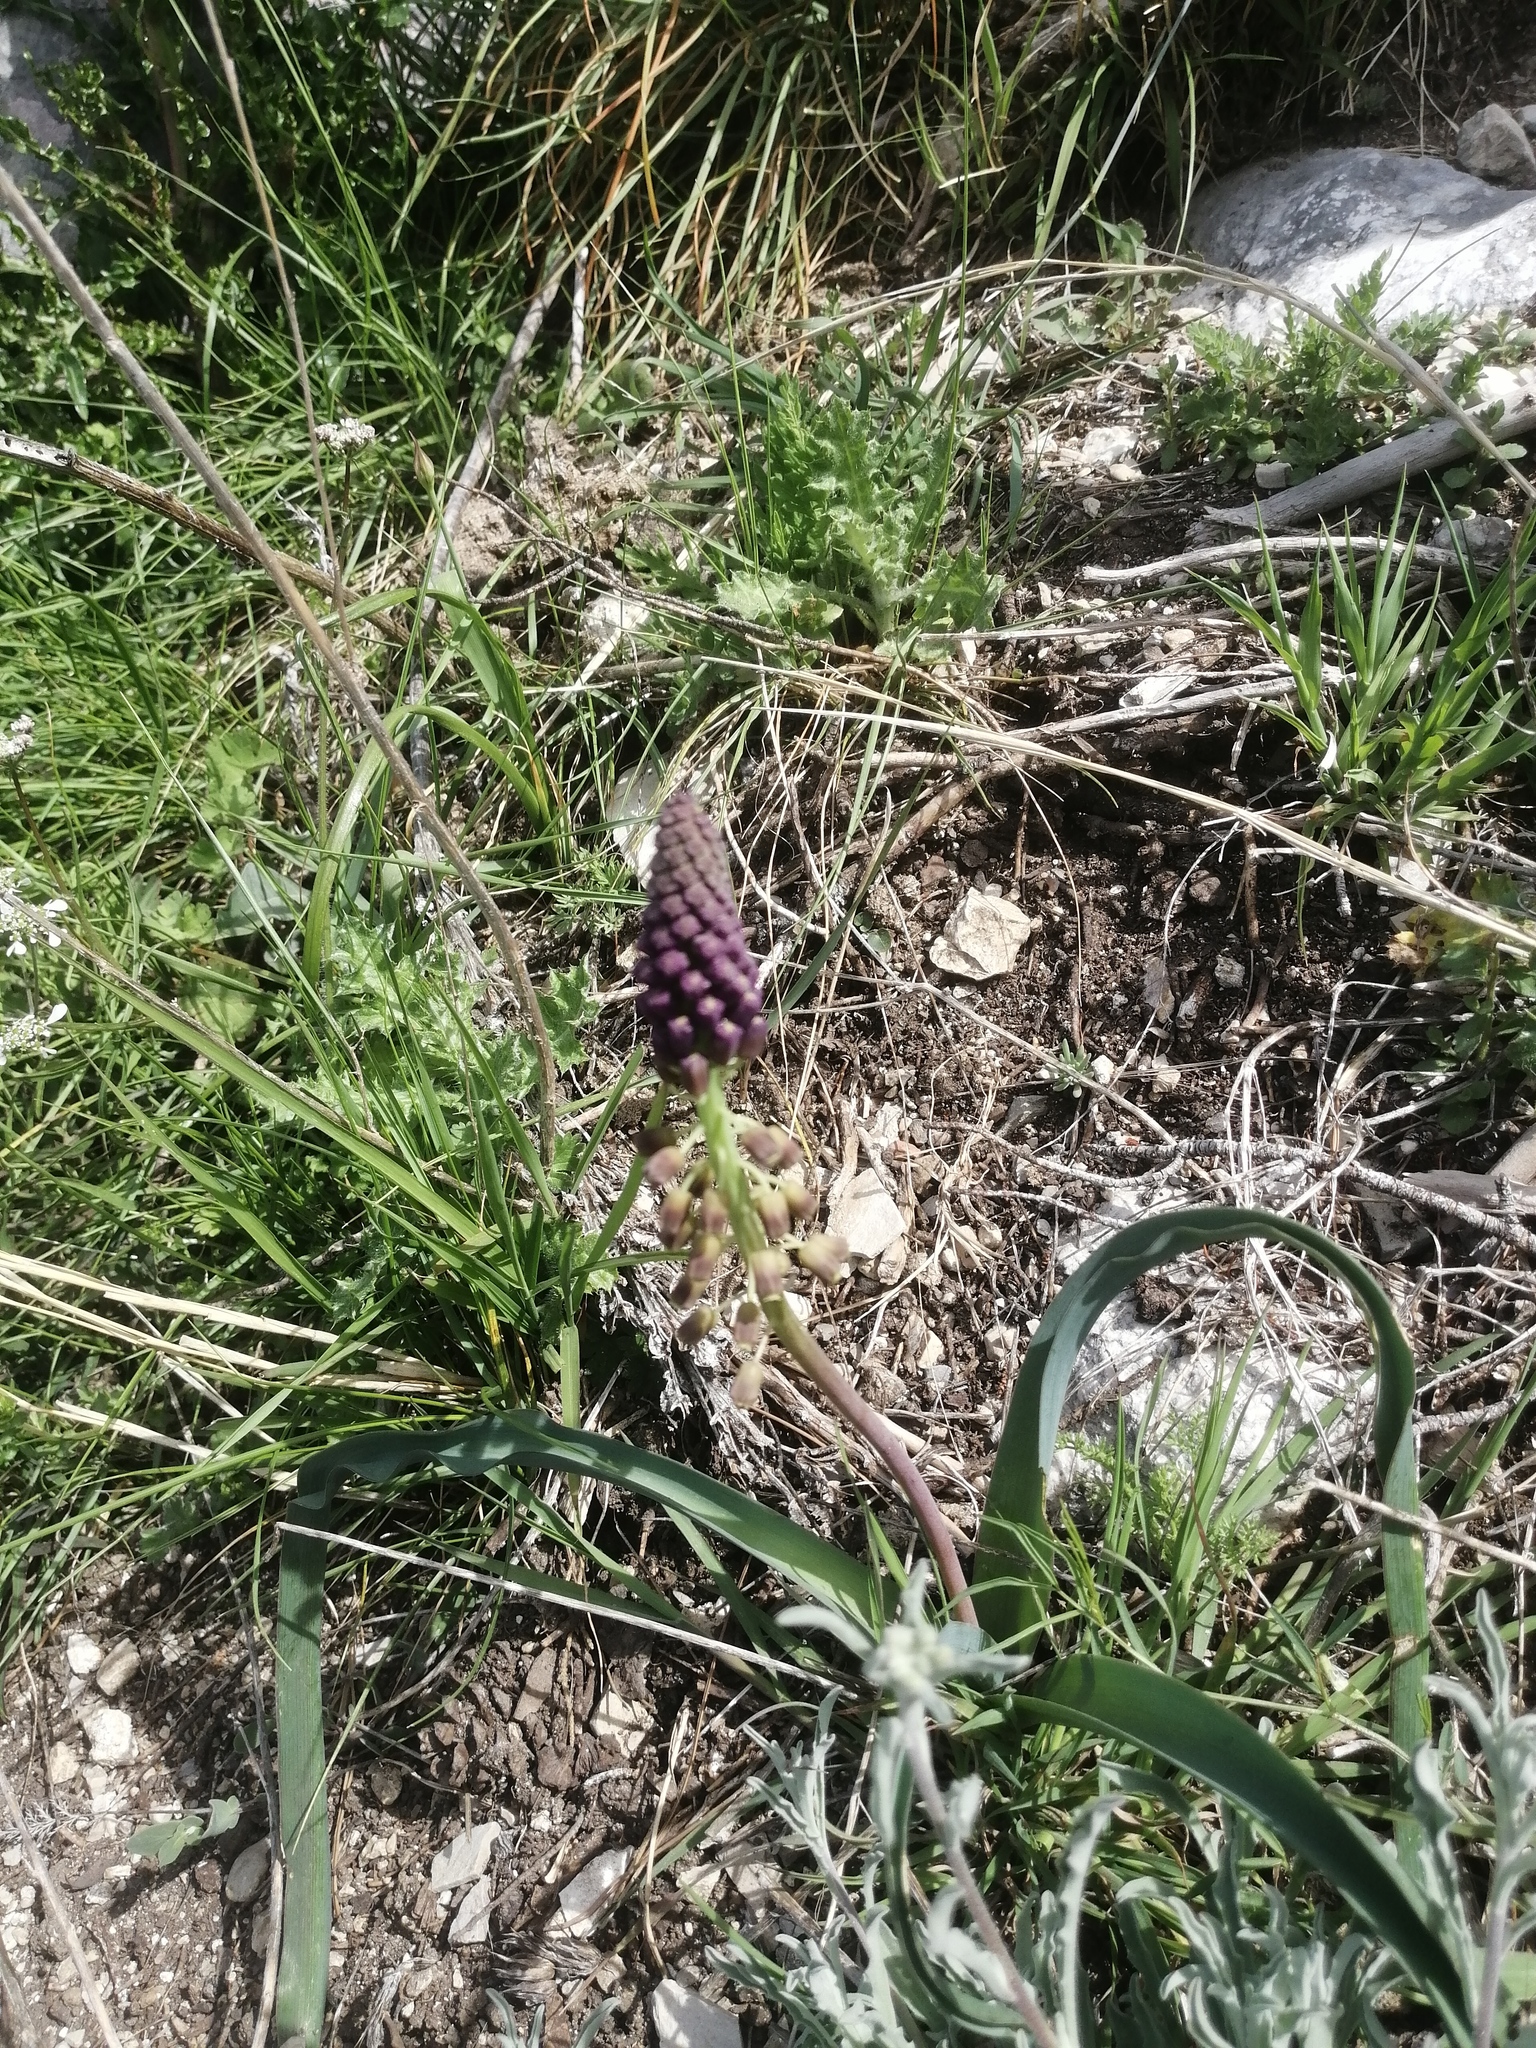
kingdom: Plantae
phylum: Tracheophyta
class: Liliopsida
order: Asparagales
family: Asparagaceae
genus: Muscari
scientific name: Muscari comosum
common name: Tassel hyacinth
